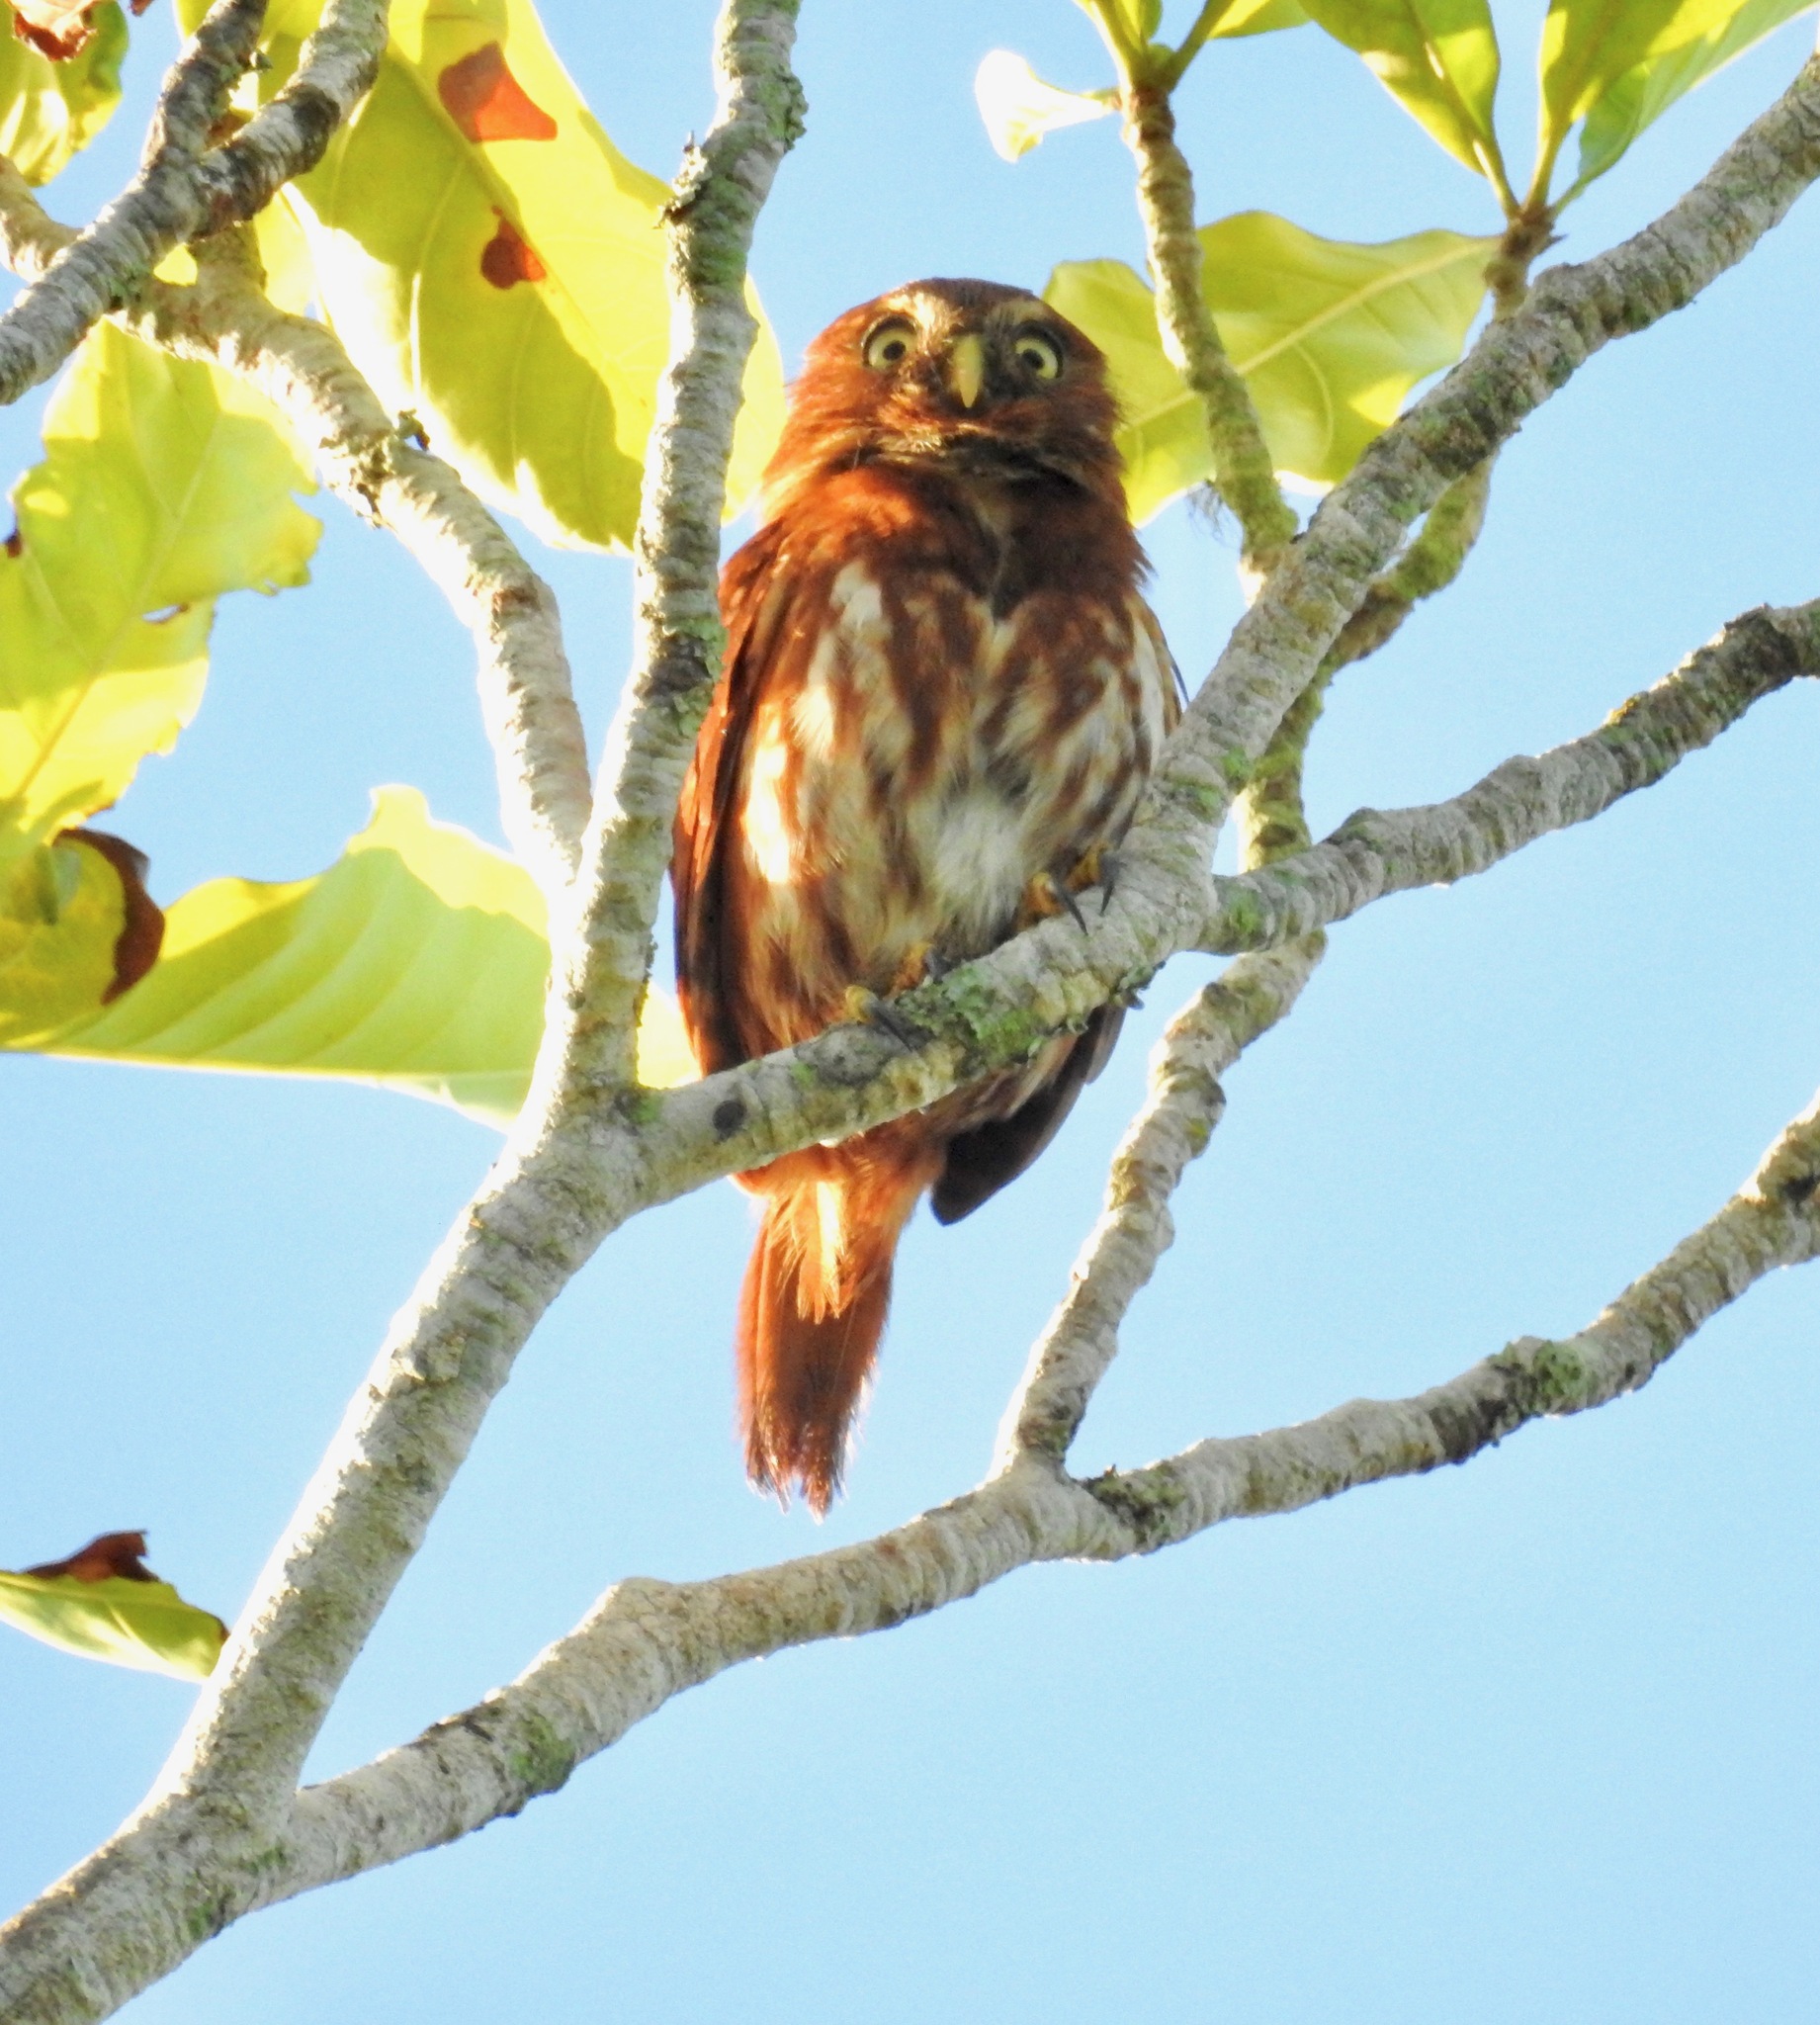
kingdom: Animalia
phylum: Chordata
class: Aves
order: Strigiformes
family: Strigidae
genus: Glaucidium
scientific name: Glaucidium brasilianum
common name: Ferruginous pygmy-owl
